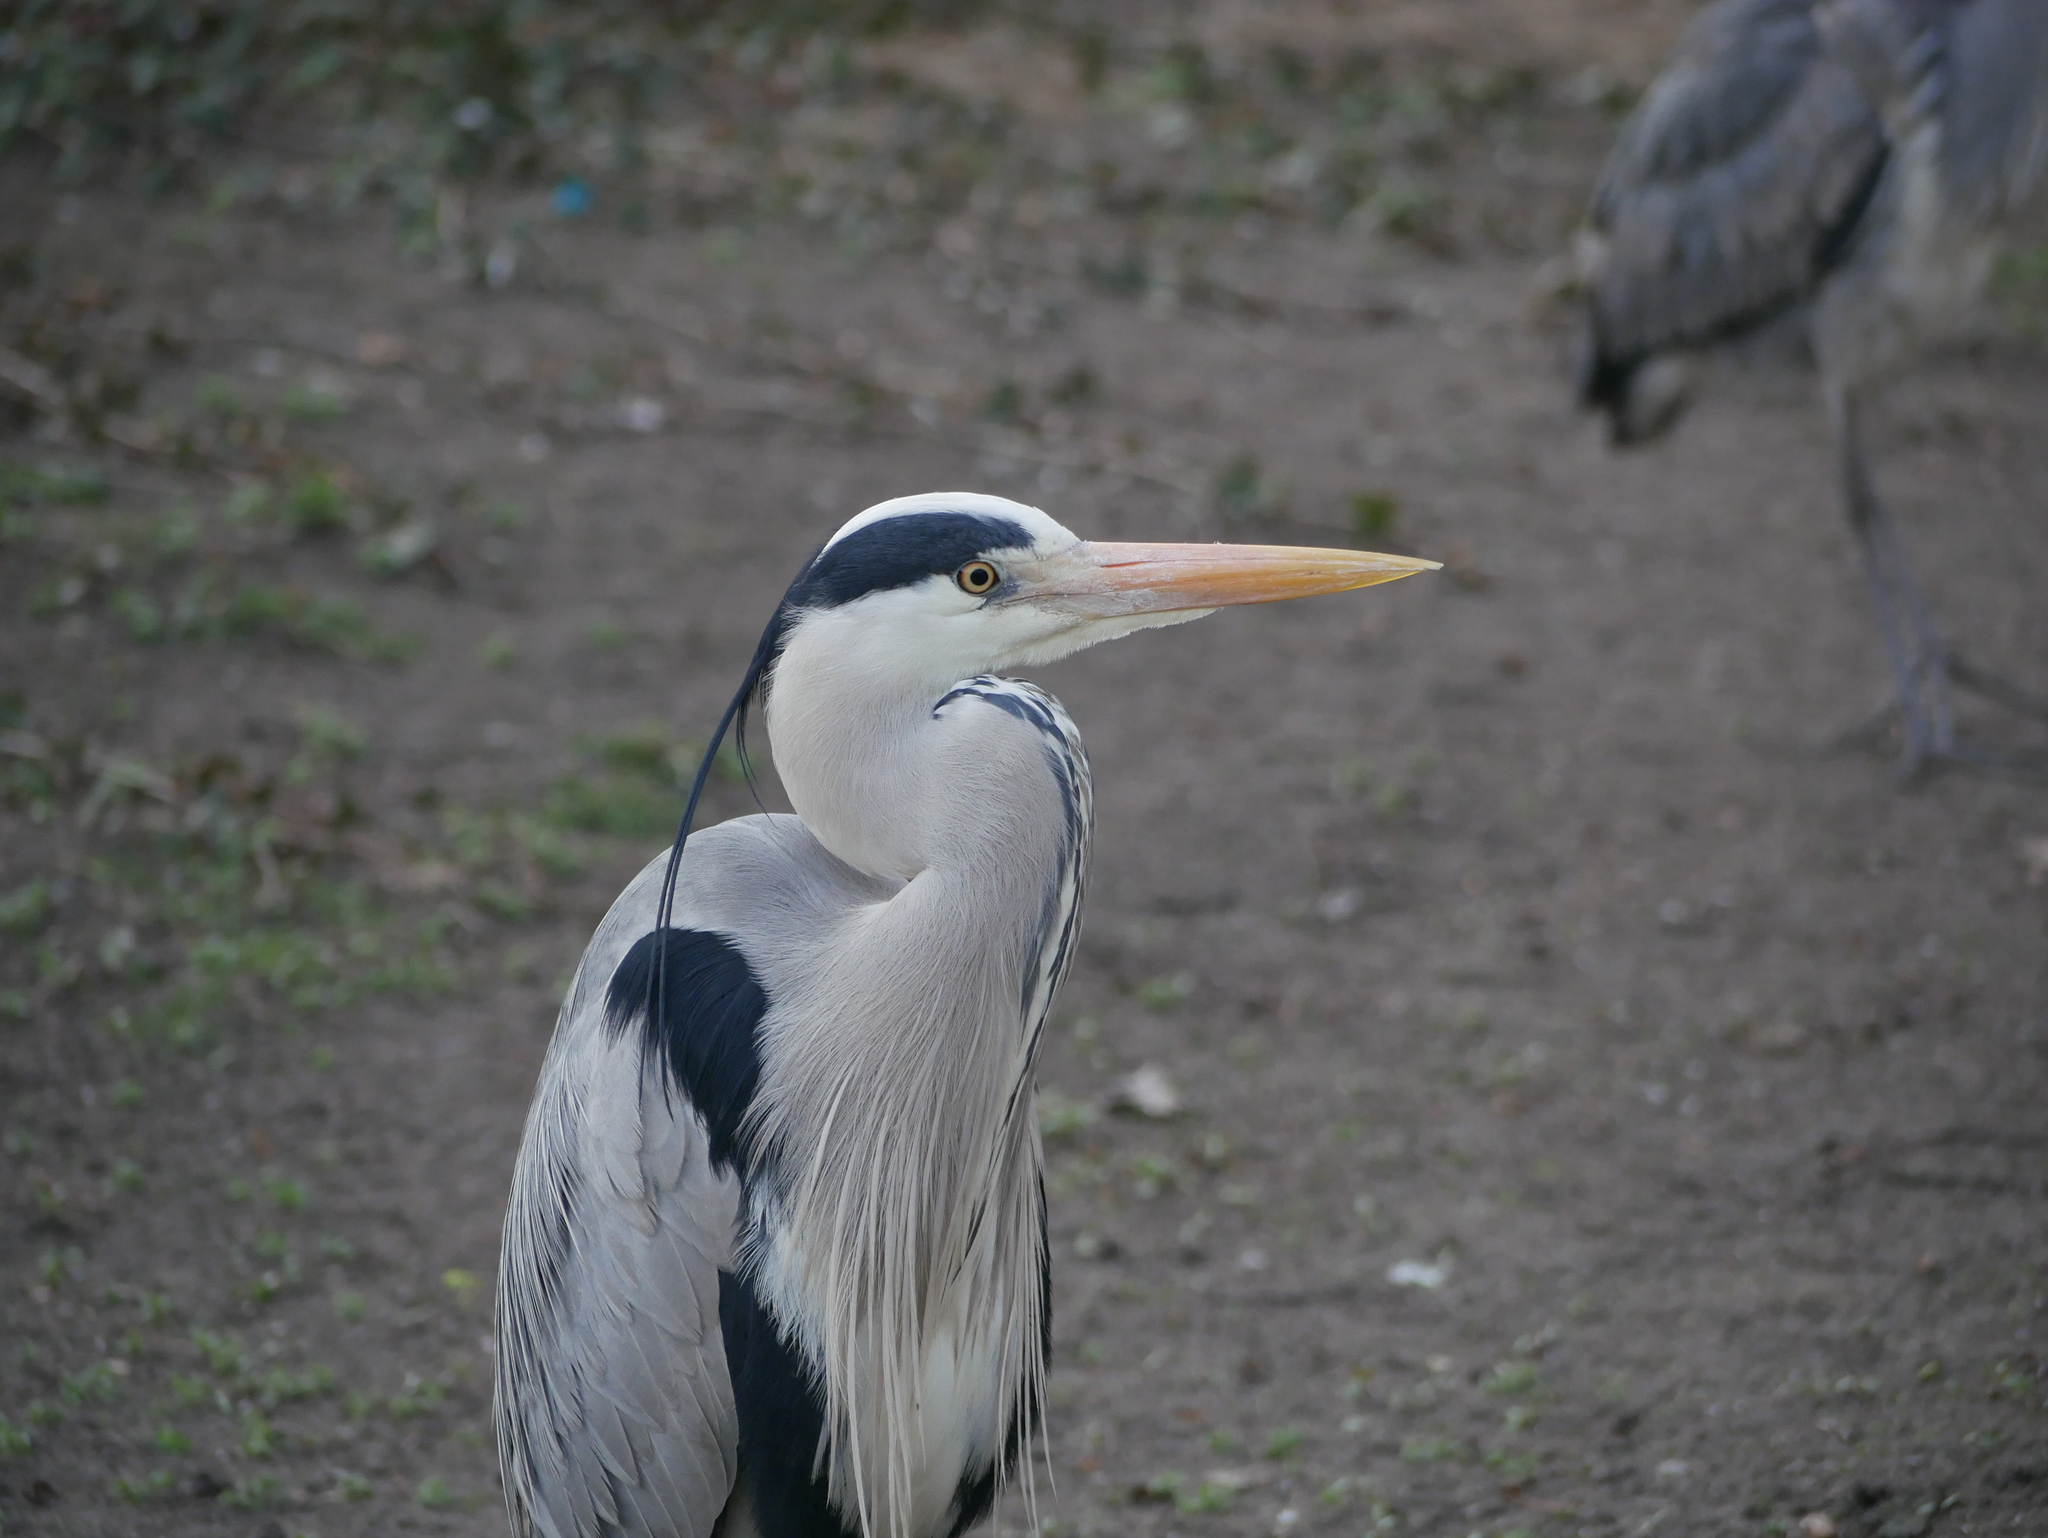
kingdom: Animalia
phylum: Chordata
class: Aves
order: Pelecaniformes
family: Ardeidae
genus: Ardea
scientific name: Ardea cinerea
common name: Grey heron
